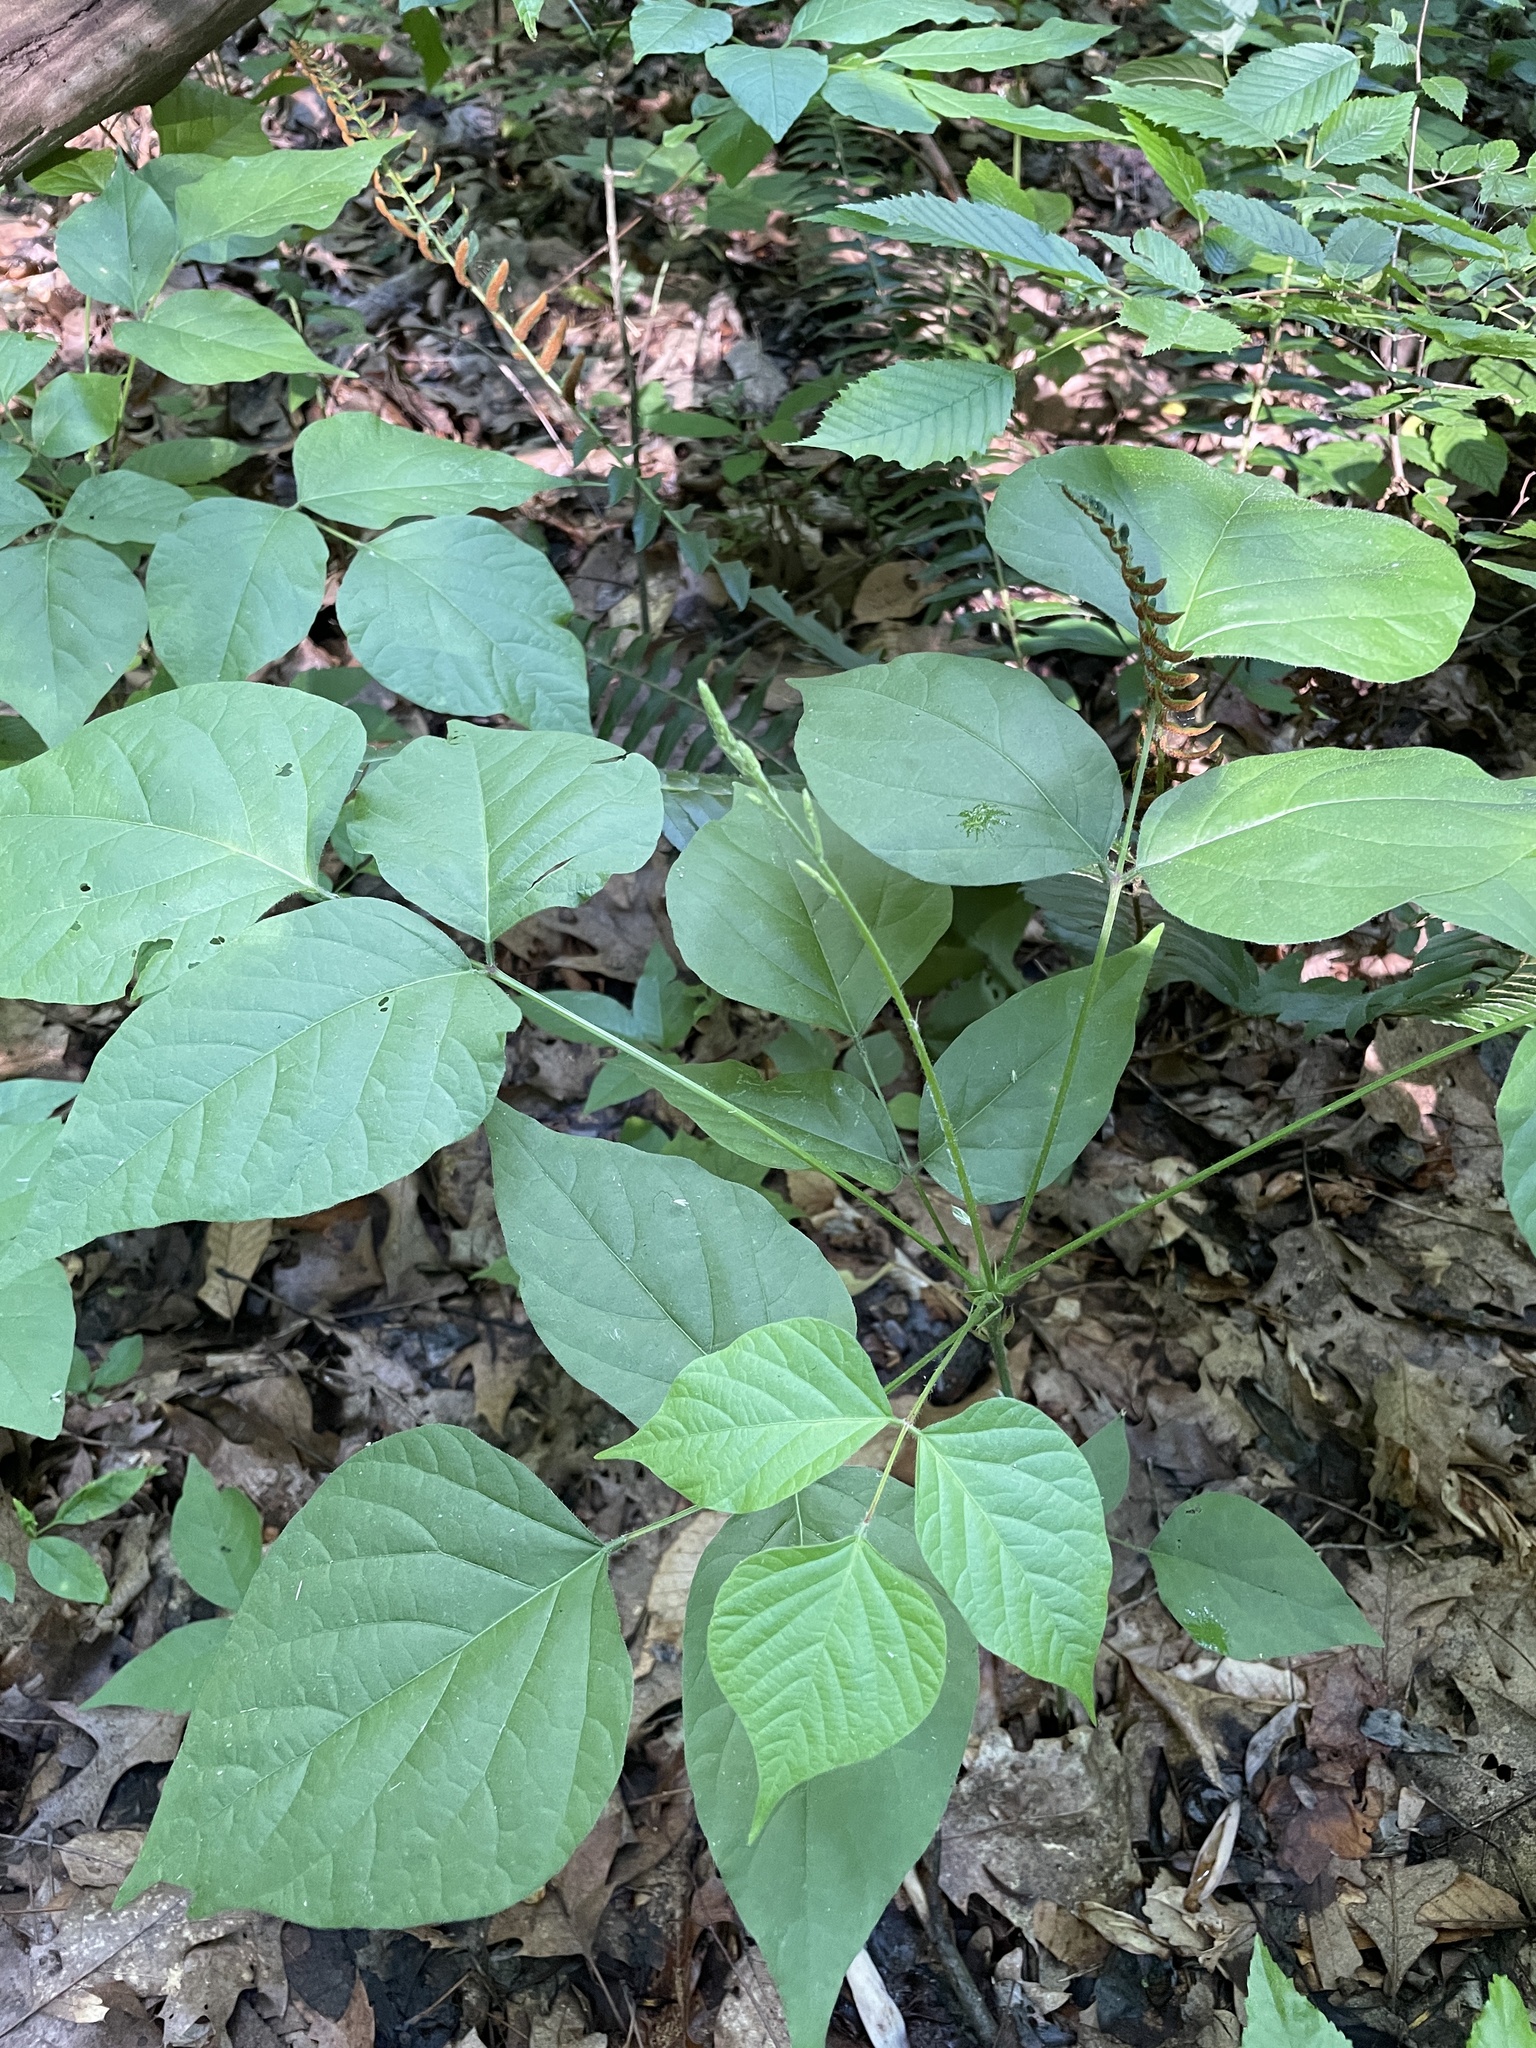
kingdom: Plantae
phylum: Tracheophyta
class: Magnoliopsida
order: Fabales
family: Fabaceae
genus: Hylodesmum
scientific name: Hylodesmum glutinosum
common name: Clustered-leaved tick-trefoil
